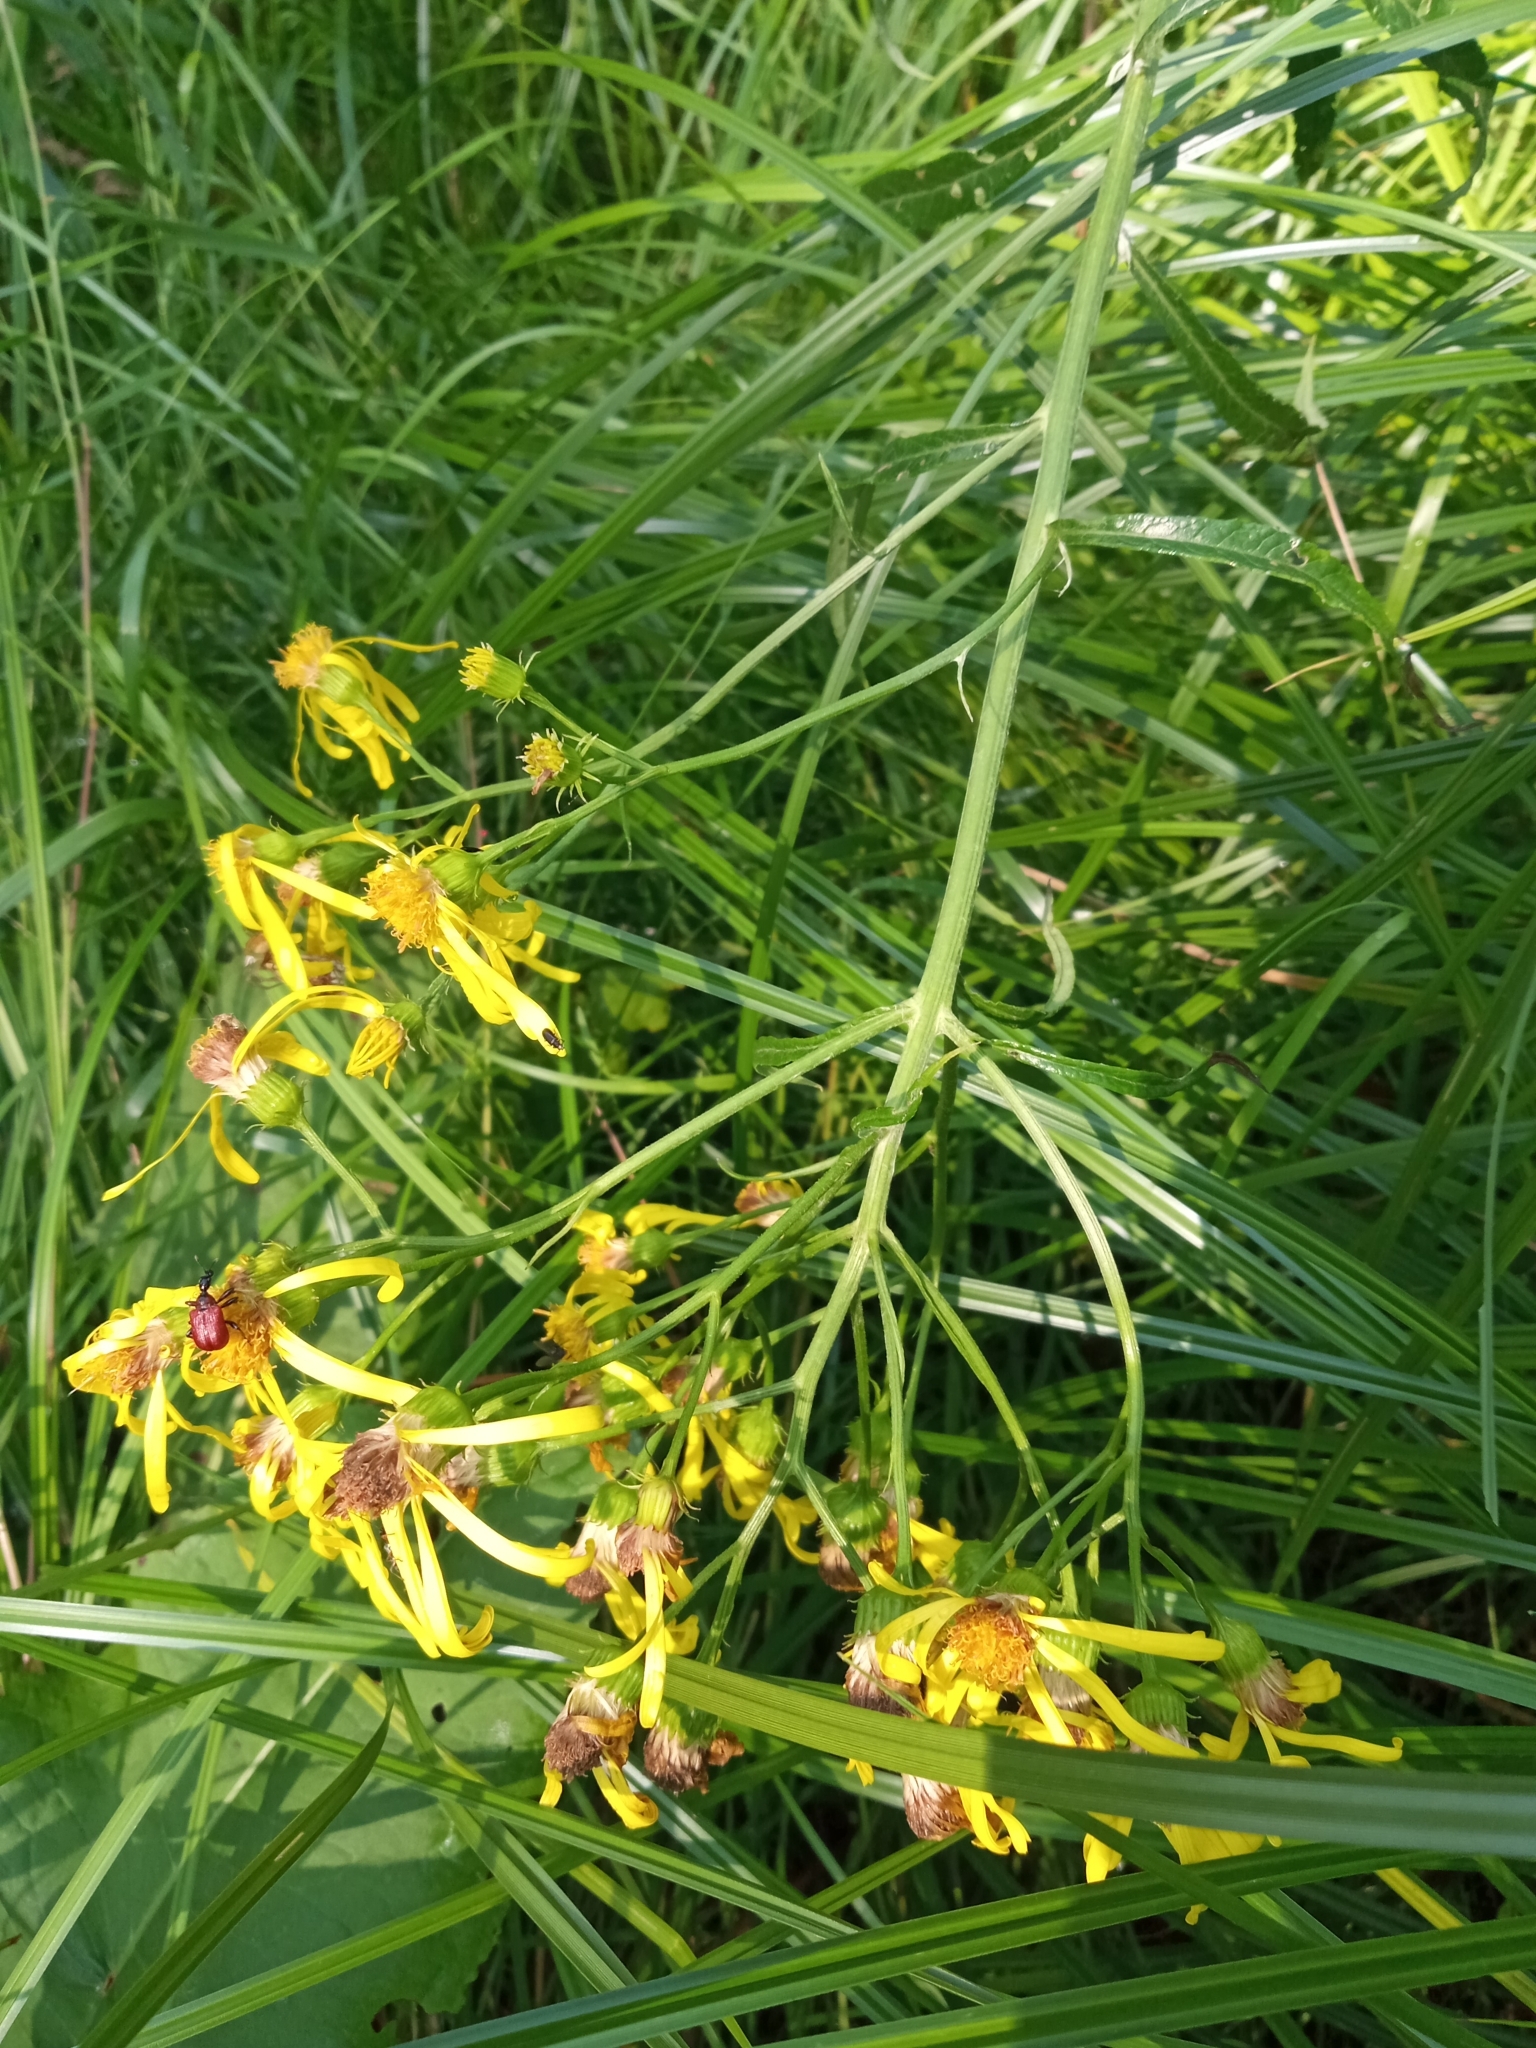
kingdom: Plantae
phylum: Tracheophyta
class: Magnoliopsida
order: Asterales
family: Asteraceae
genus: Jacobaea
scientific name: Jacobaea paludosa
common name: Fen ragwort
